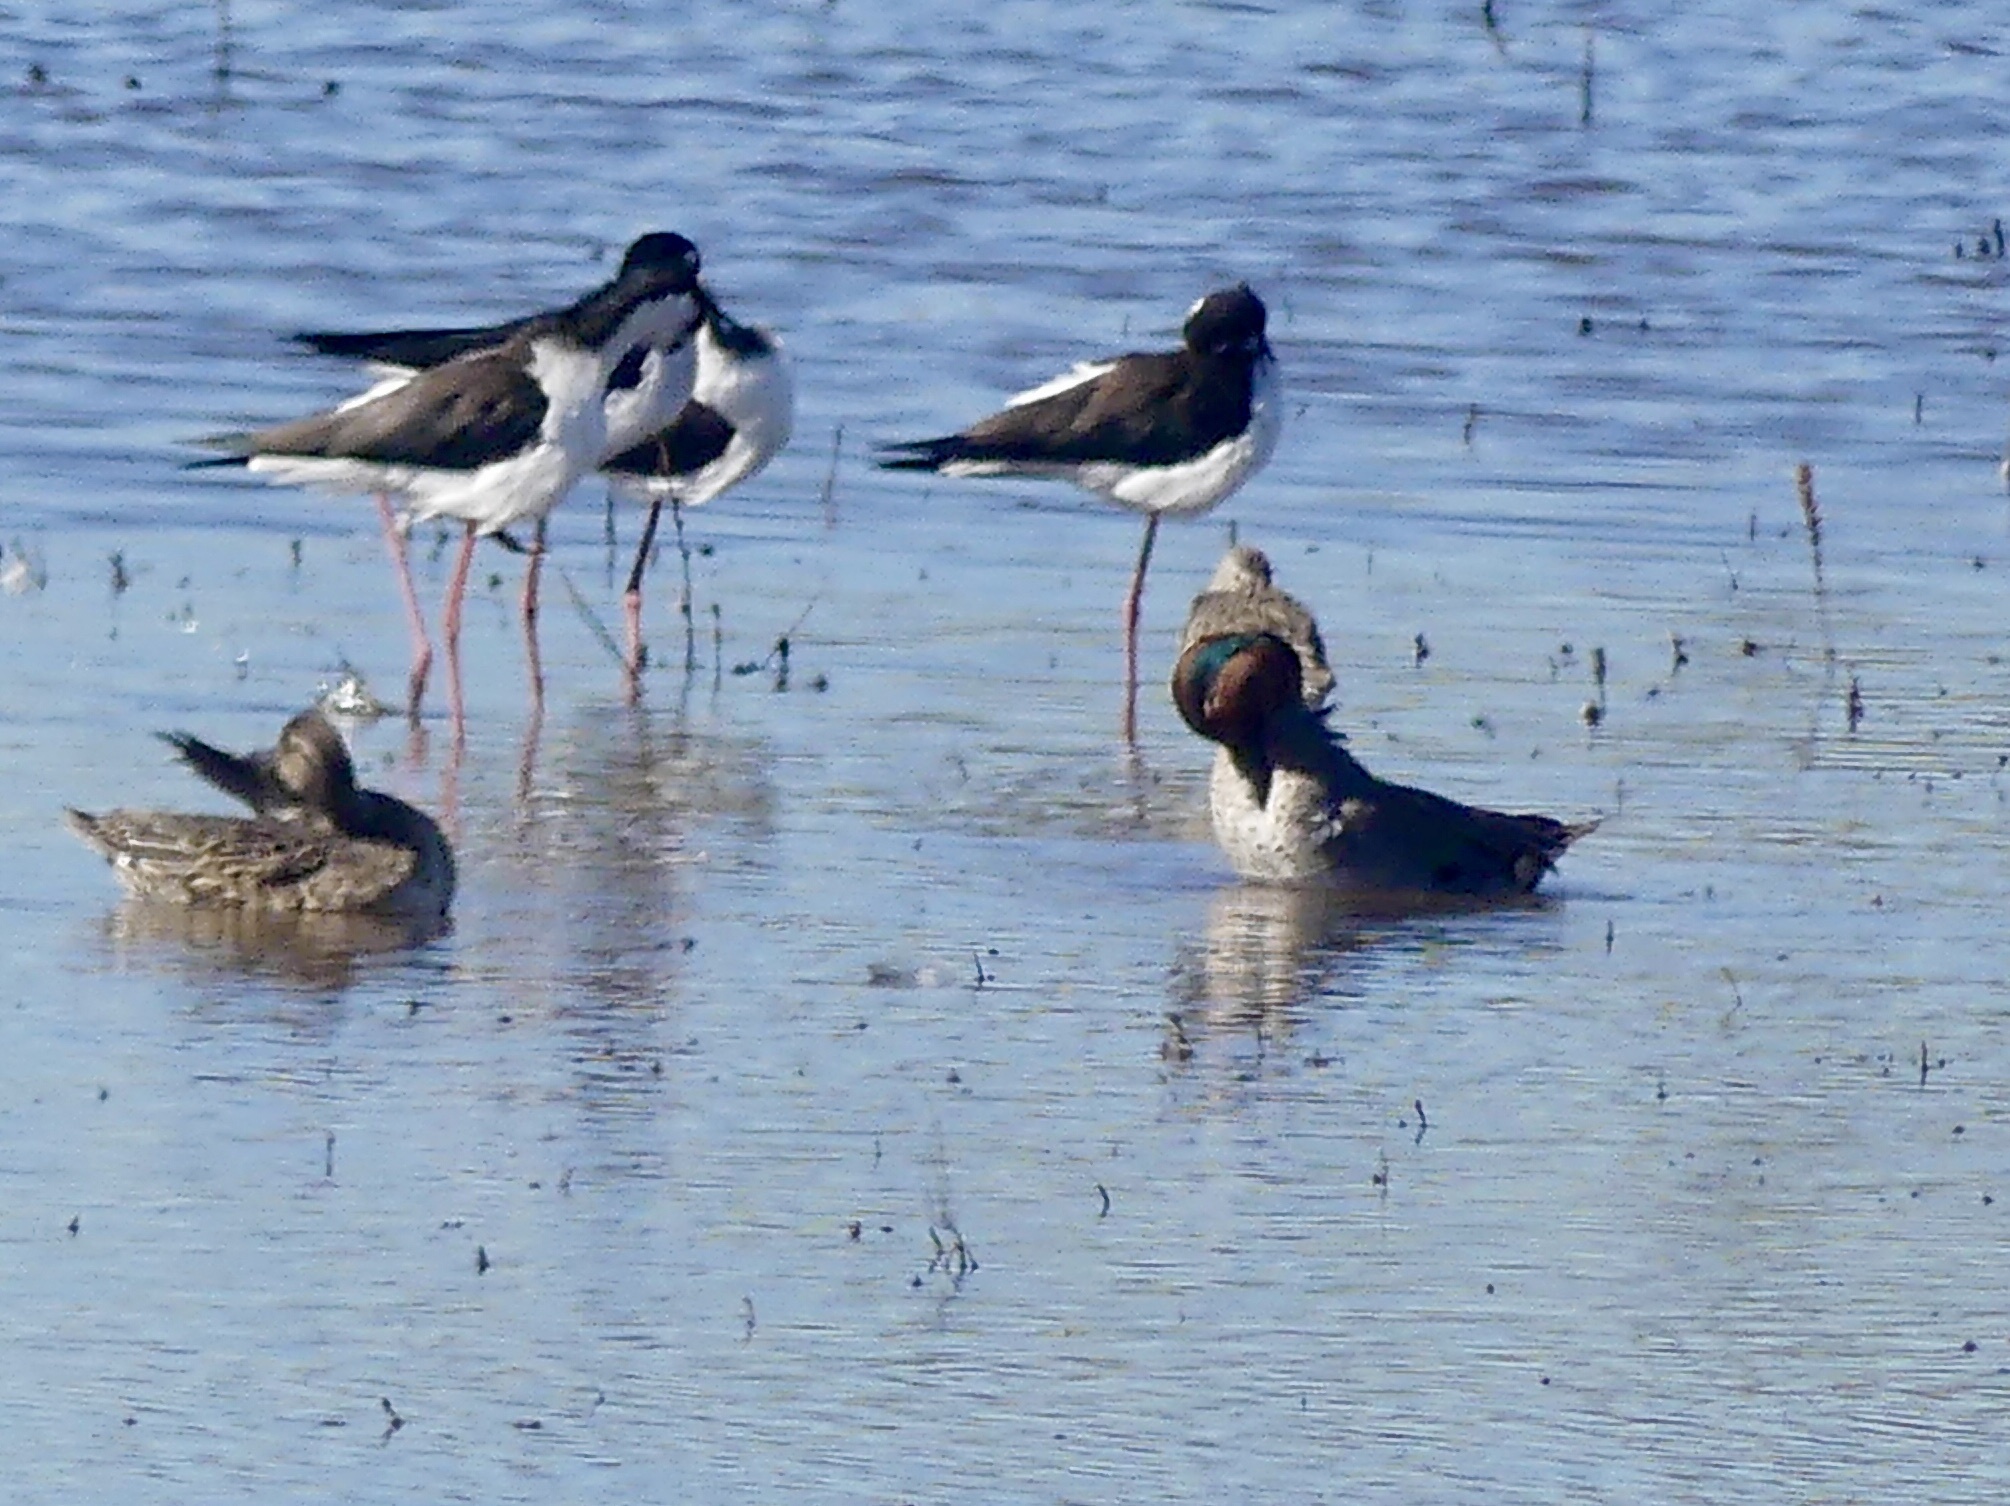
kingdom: Animalia
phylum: Chordata
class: Aves
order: Anseriformes
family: Anatidae
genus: Anas
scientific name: Anas crecca
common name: Eurasian teal
